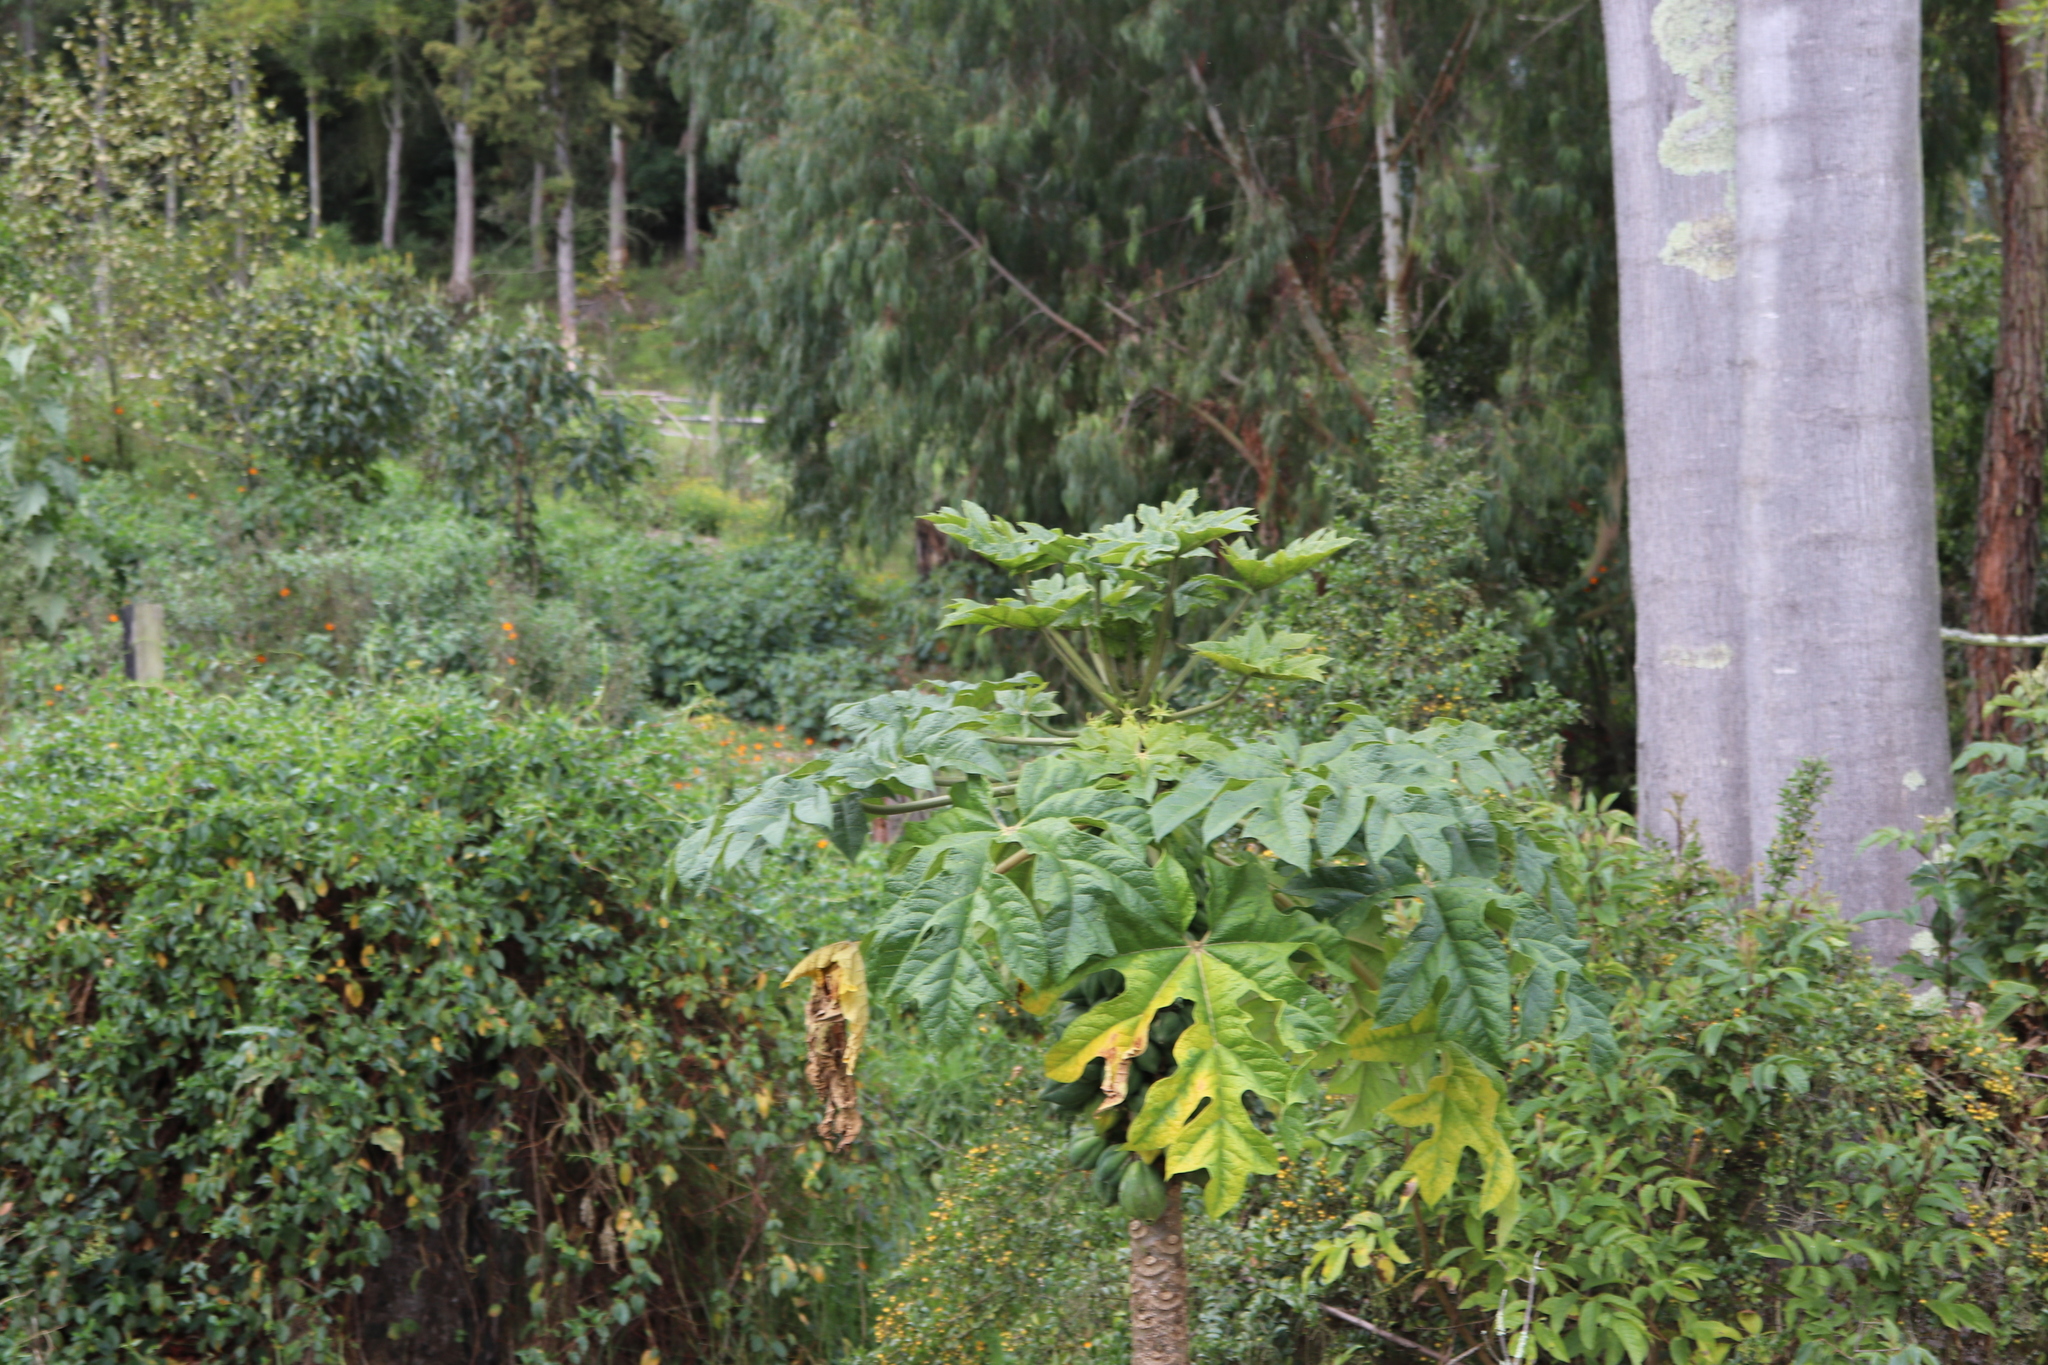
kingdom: Plantae
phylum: Tracheophyta
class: Magnoliopsida
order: Brassicales
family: Caricaceae
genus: Vasconcellea
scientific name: Vasconcellea pubescens
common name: Mountain papaya
